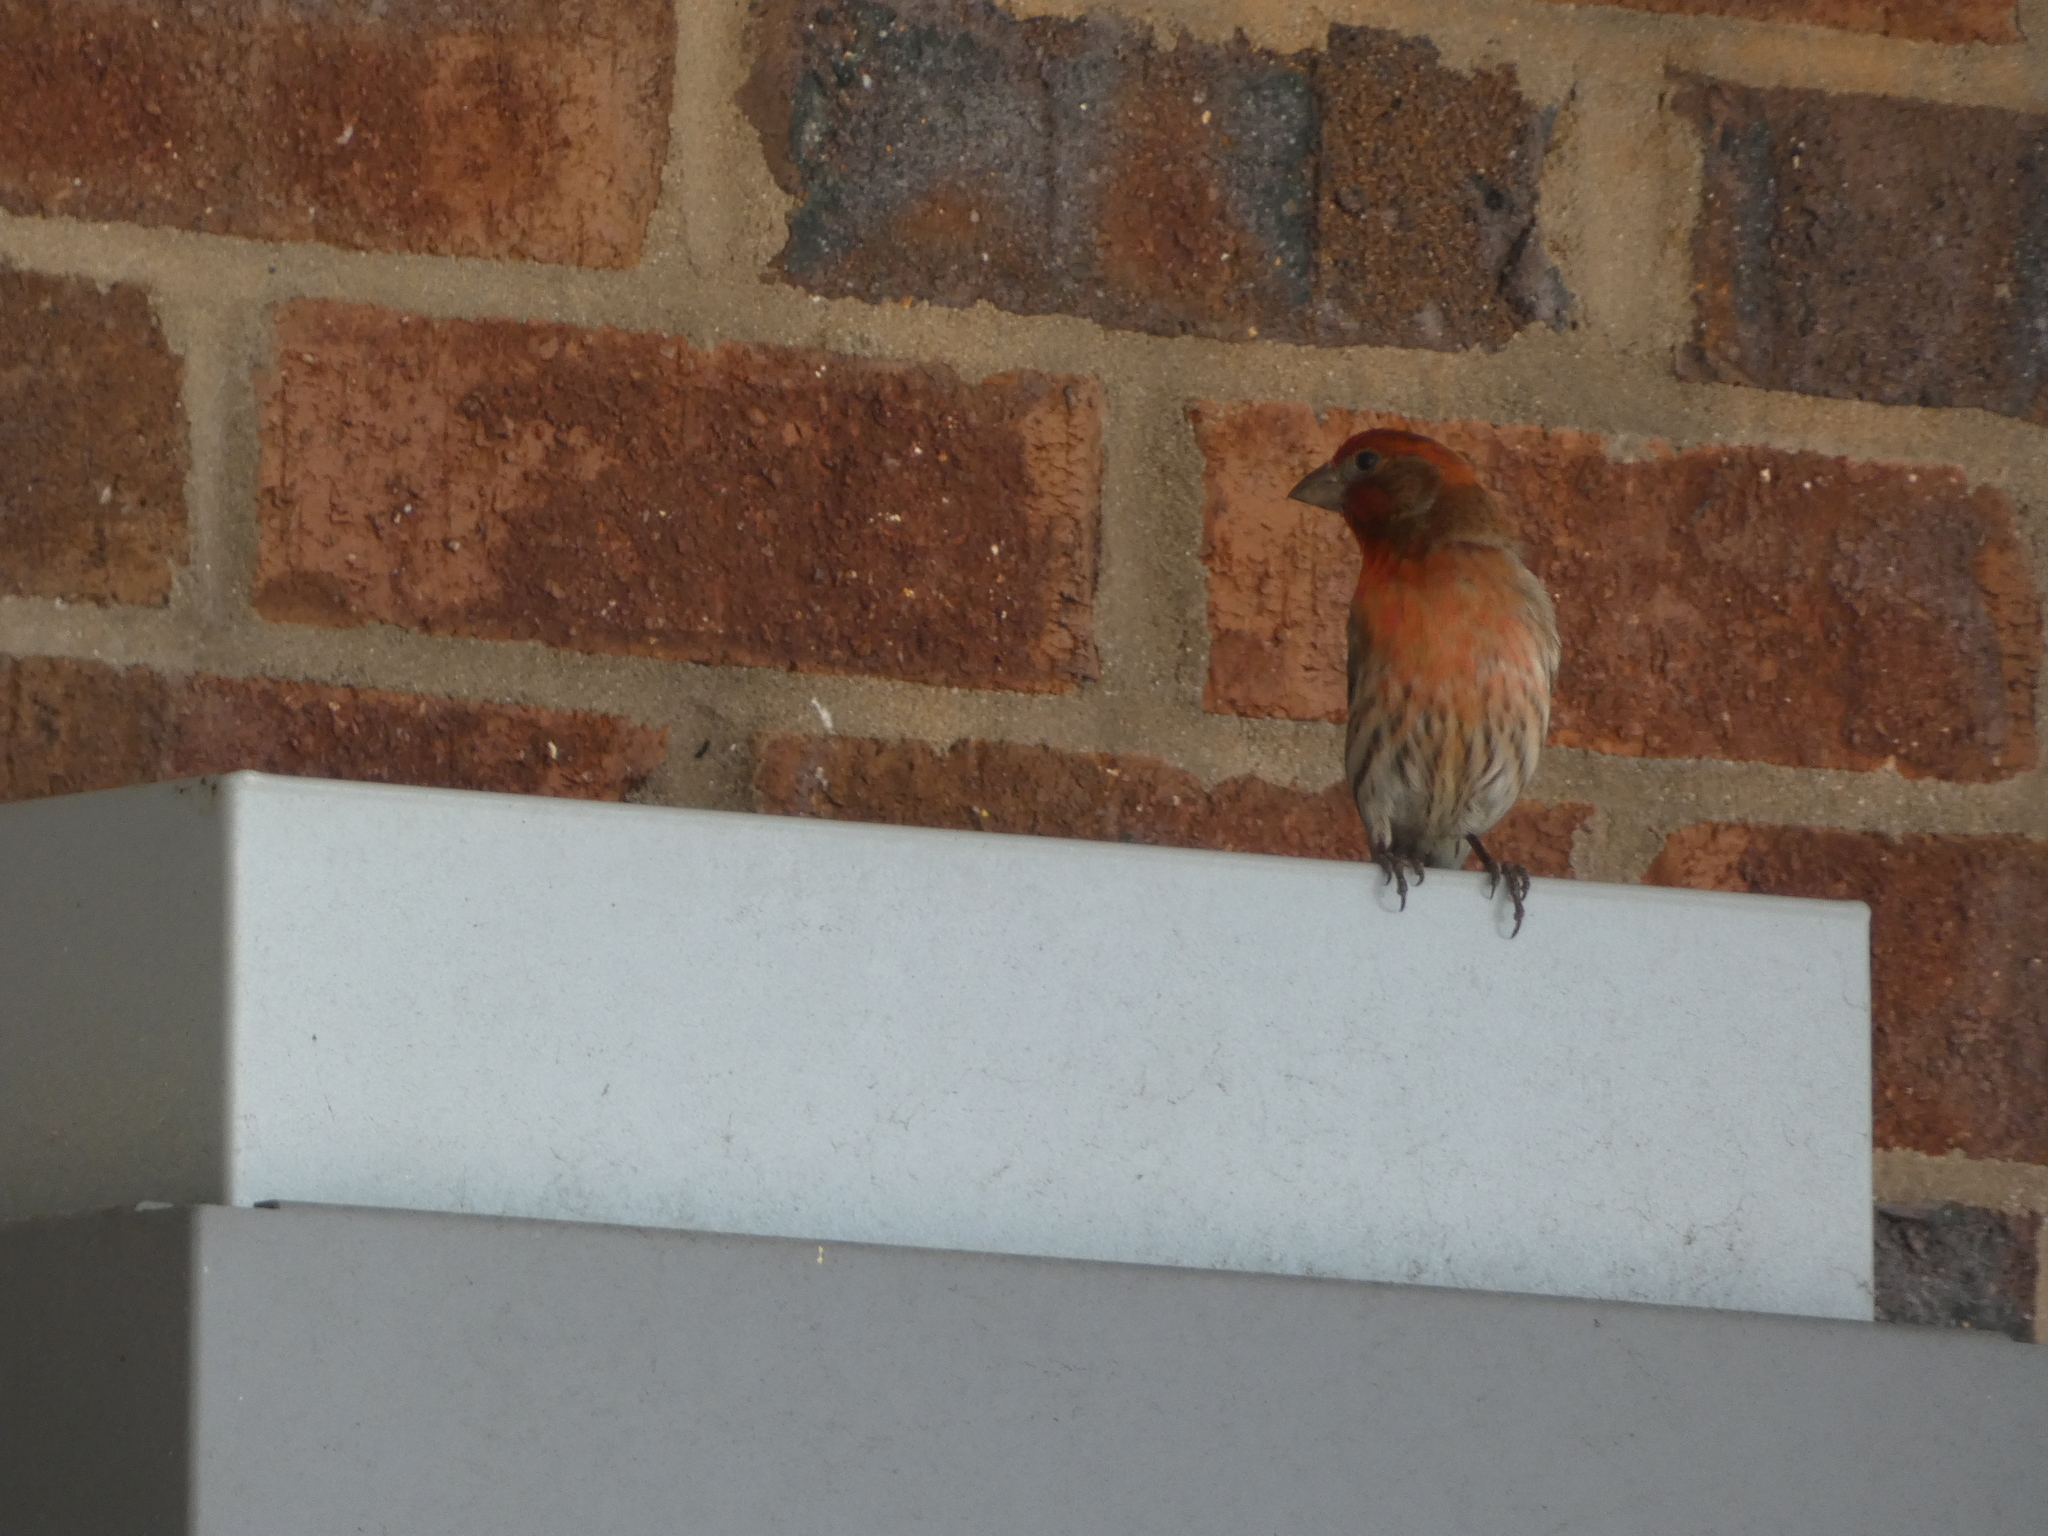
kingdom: Animalia
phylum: Chordata
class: Aves
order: Passeriformes
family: Fringillidae
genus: Haemorhous
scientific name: Haemorhous mexicanus
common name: House finch
